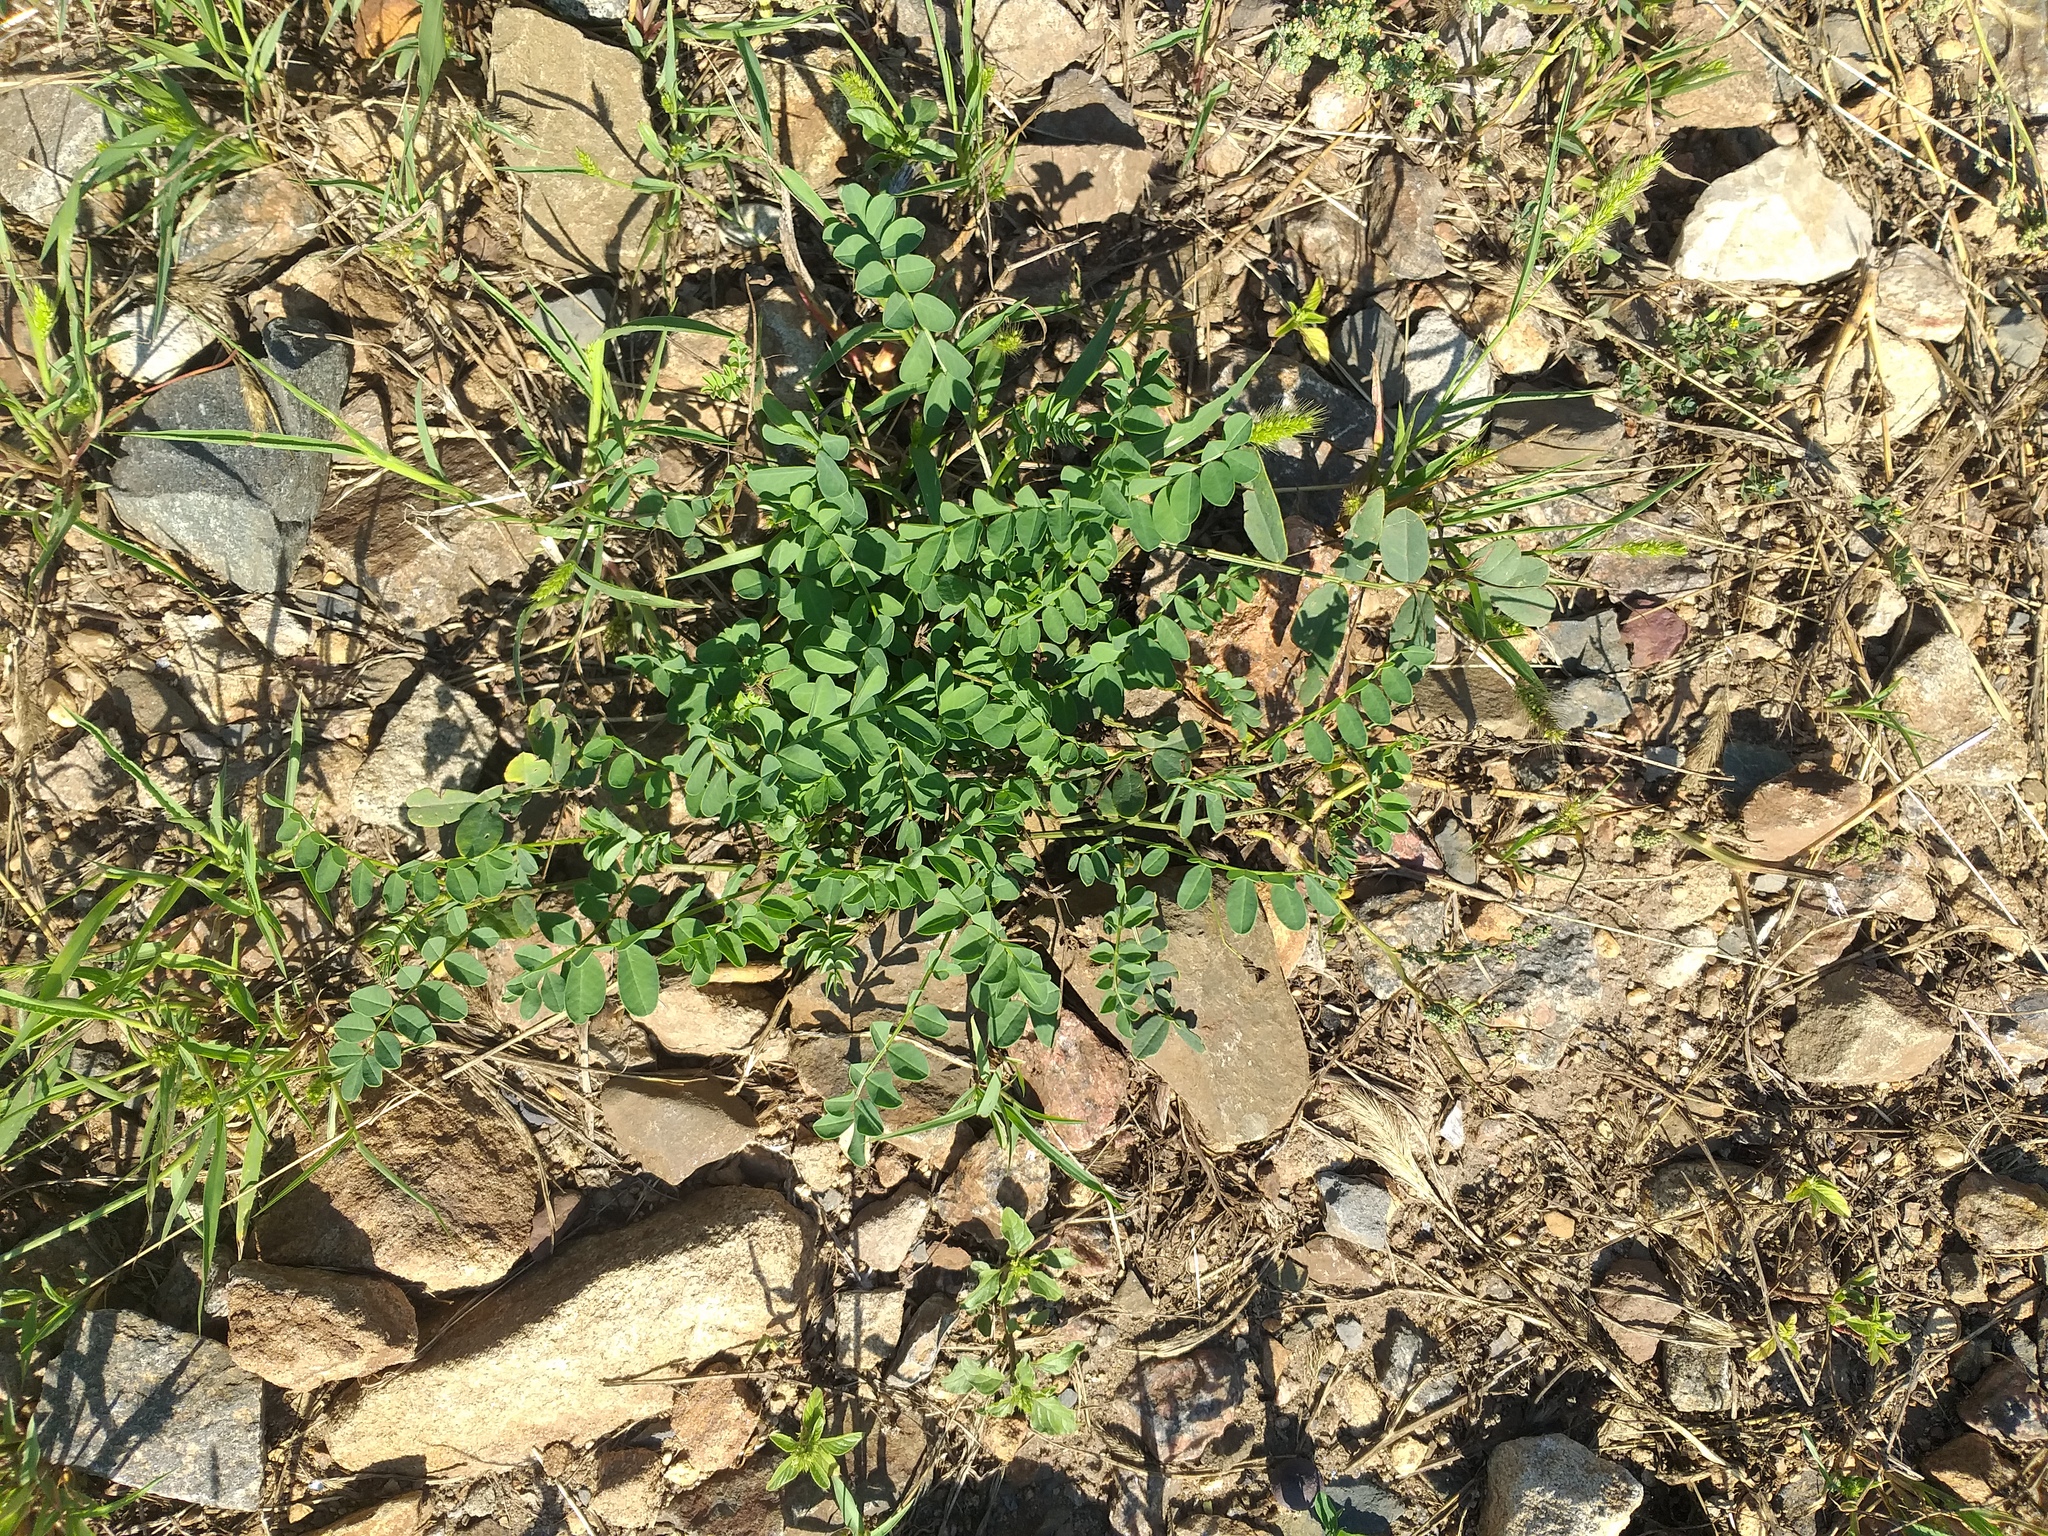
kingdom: Plantae
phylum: Tracheophyta
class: Magnoliopsida
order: Fabales
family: Fabaceae
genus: Coronilla
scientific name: Coronilla varia
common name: Crownvetch
